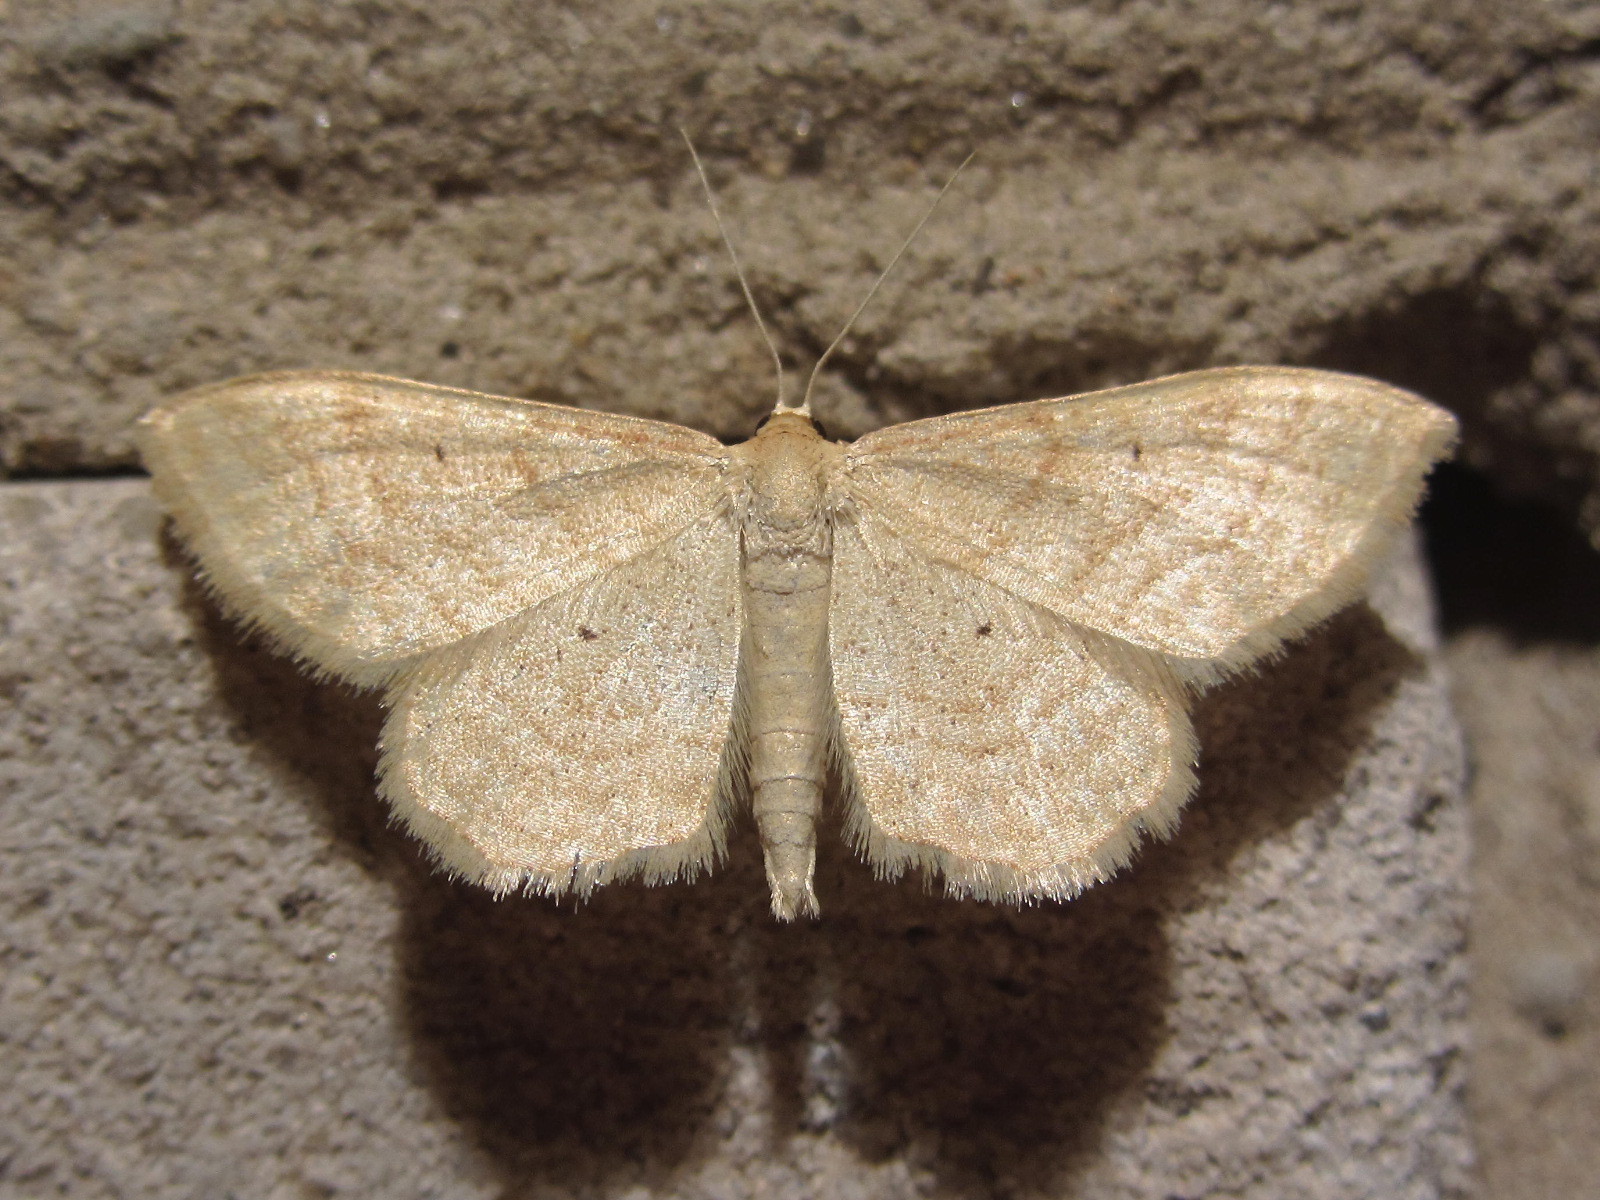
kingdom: Animalia
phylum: Arthropoda
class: Insecta
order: Lepidoptera
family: Geometridae
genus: Idaea
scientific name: Idaea rufaria
